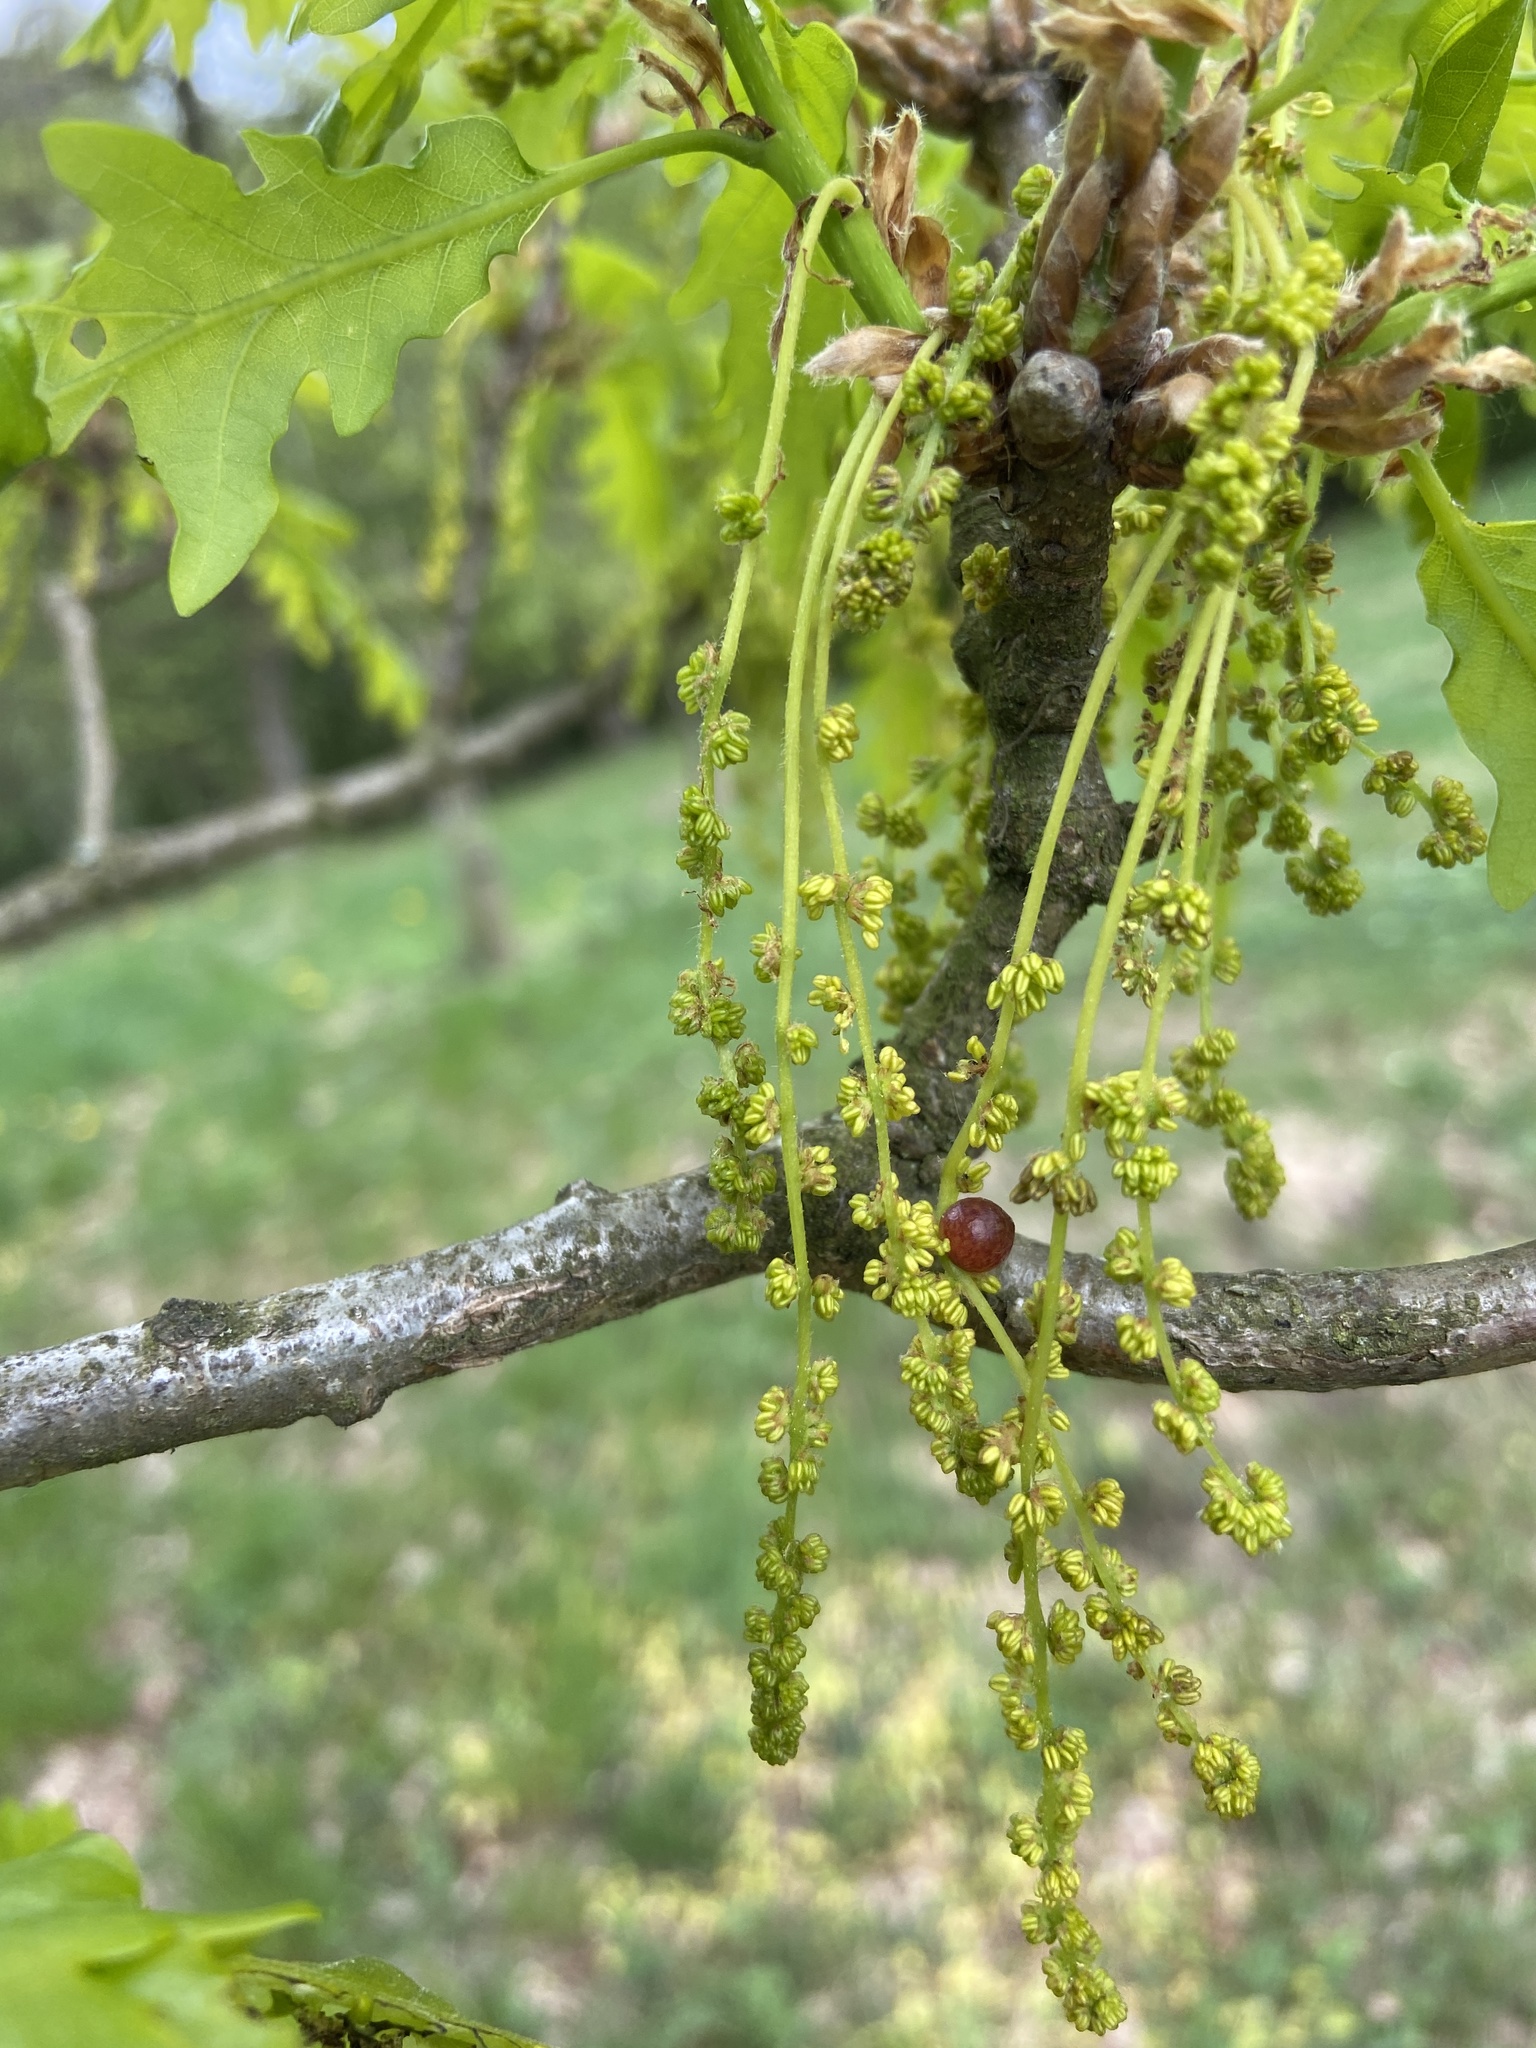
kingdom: Animalia
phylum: Arthropoda
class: Insecta
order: Hymenoptera
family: Cynipidae
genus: Neuroterus
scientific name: Neuroterus quercusbaccarum
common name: Common spangle gall
